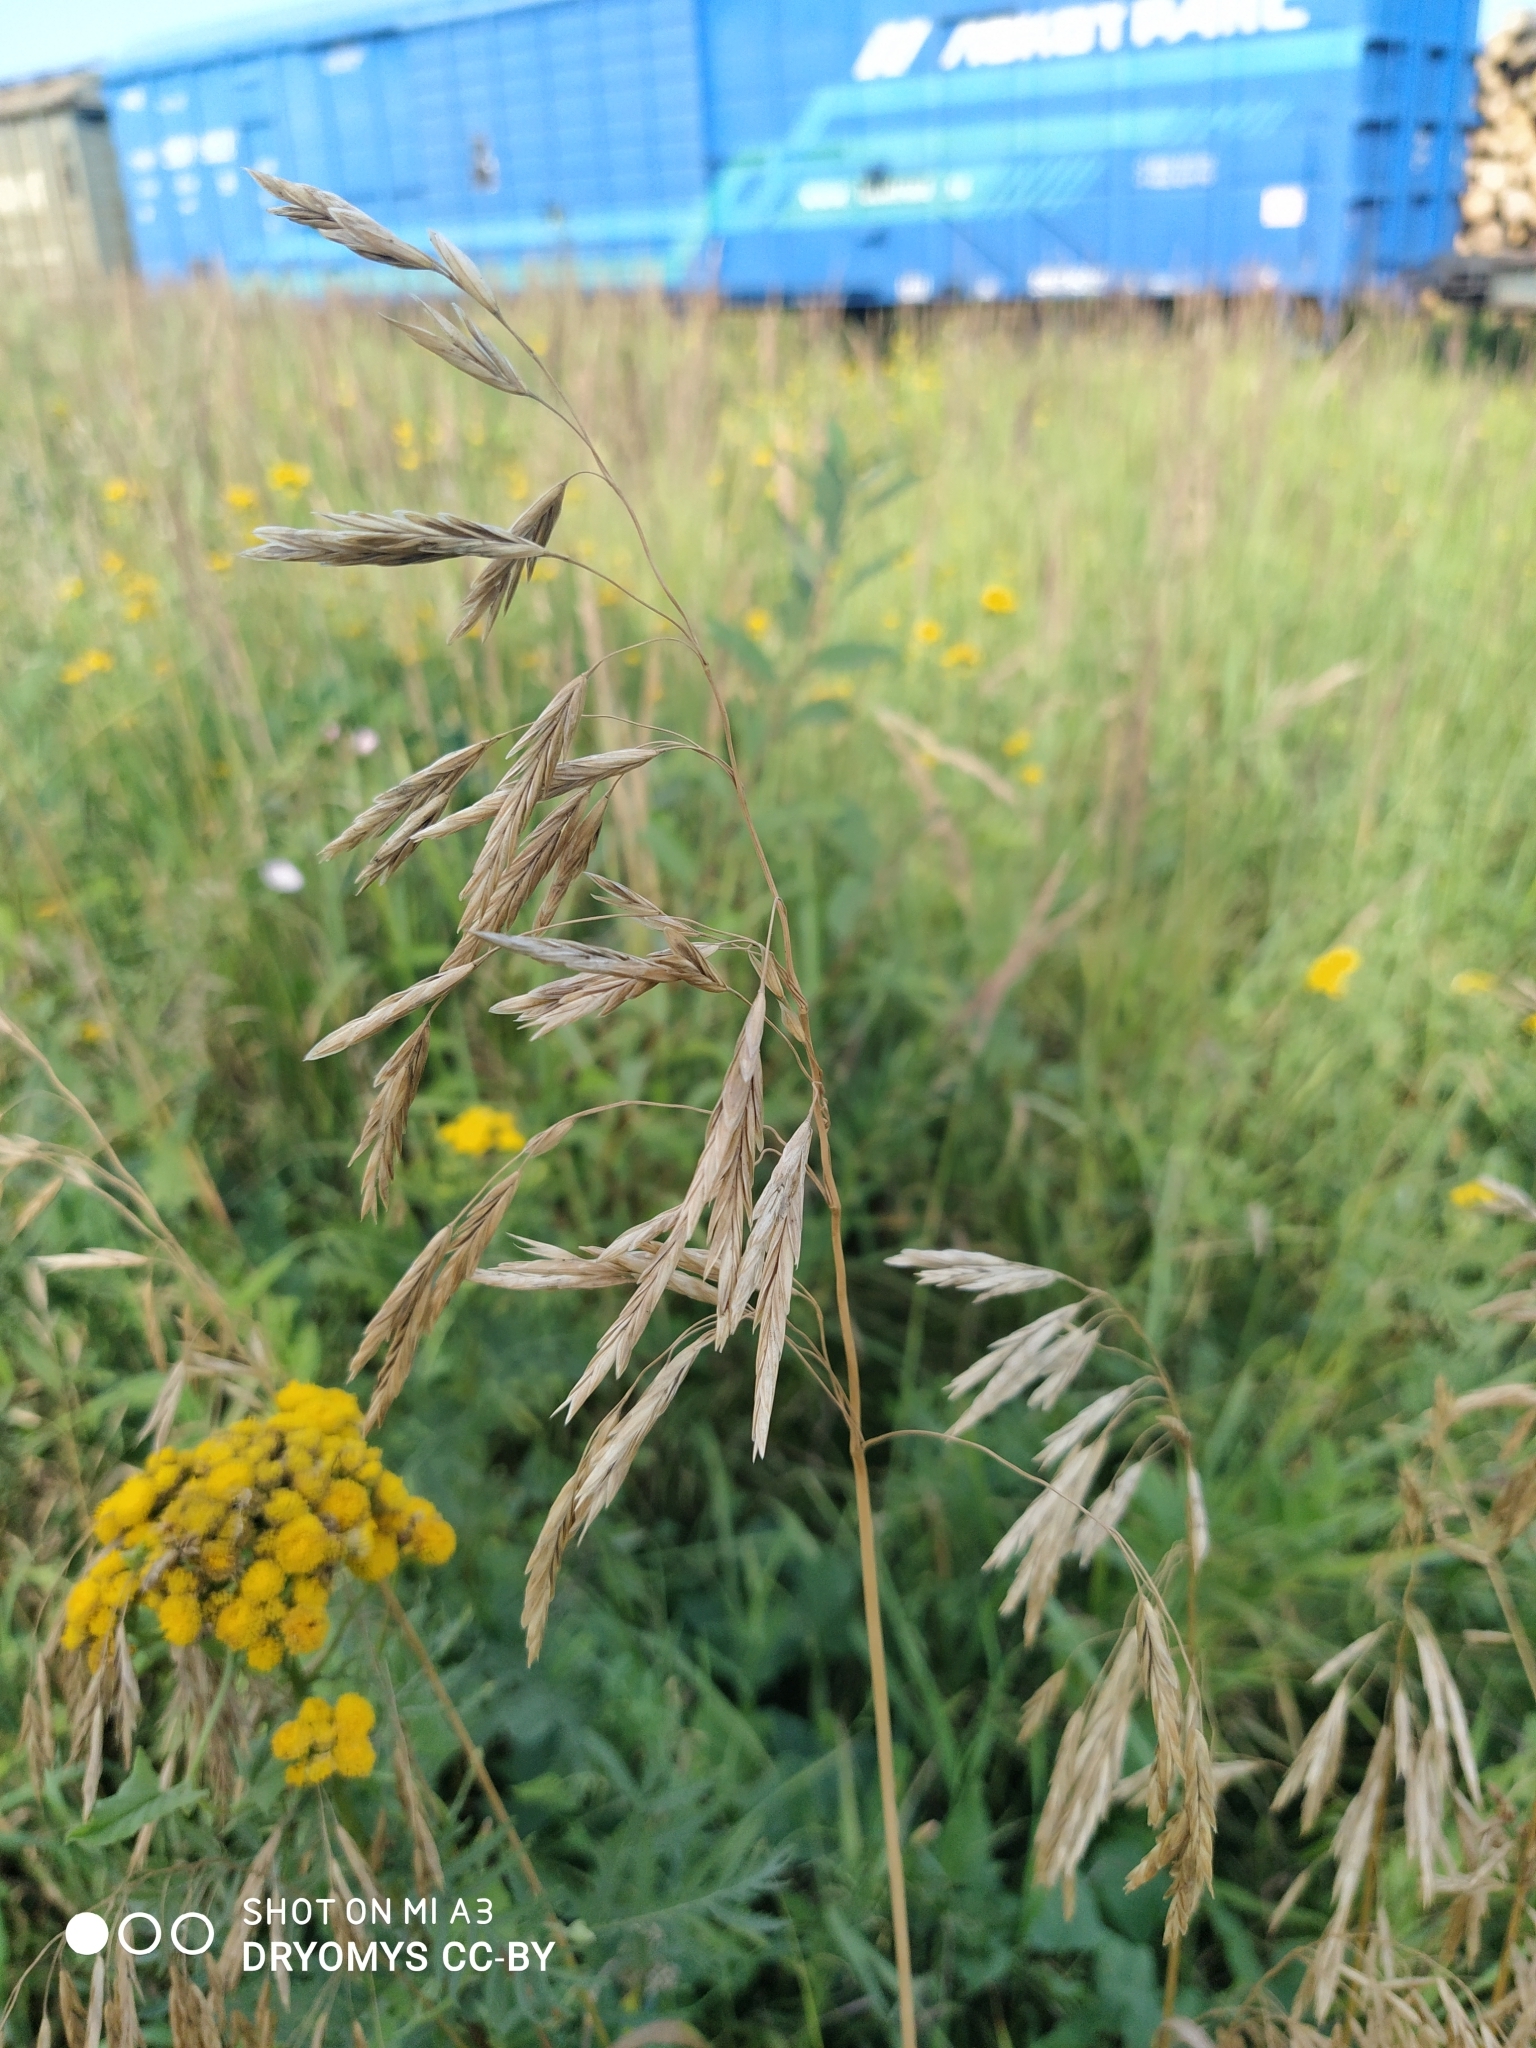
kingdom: Plantae
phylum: Tracheophyta
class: Liliopsida
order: Poales
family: Poaceae
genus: Bromus
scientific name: Bromus inermis
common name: Smooth brome
